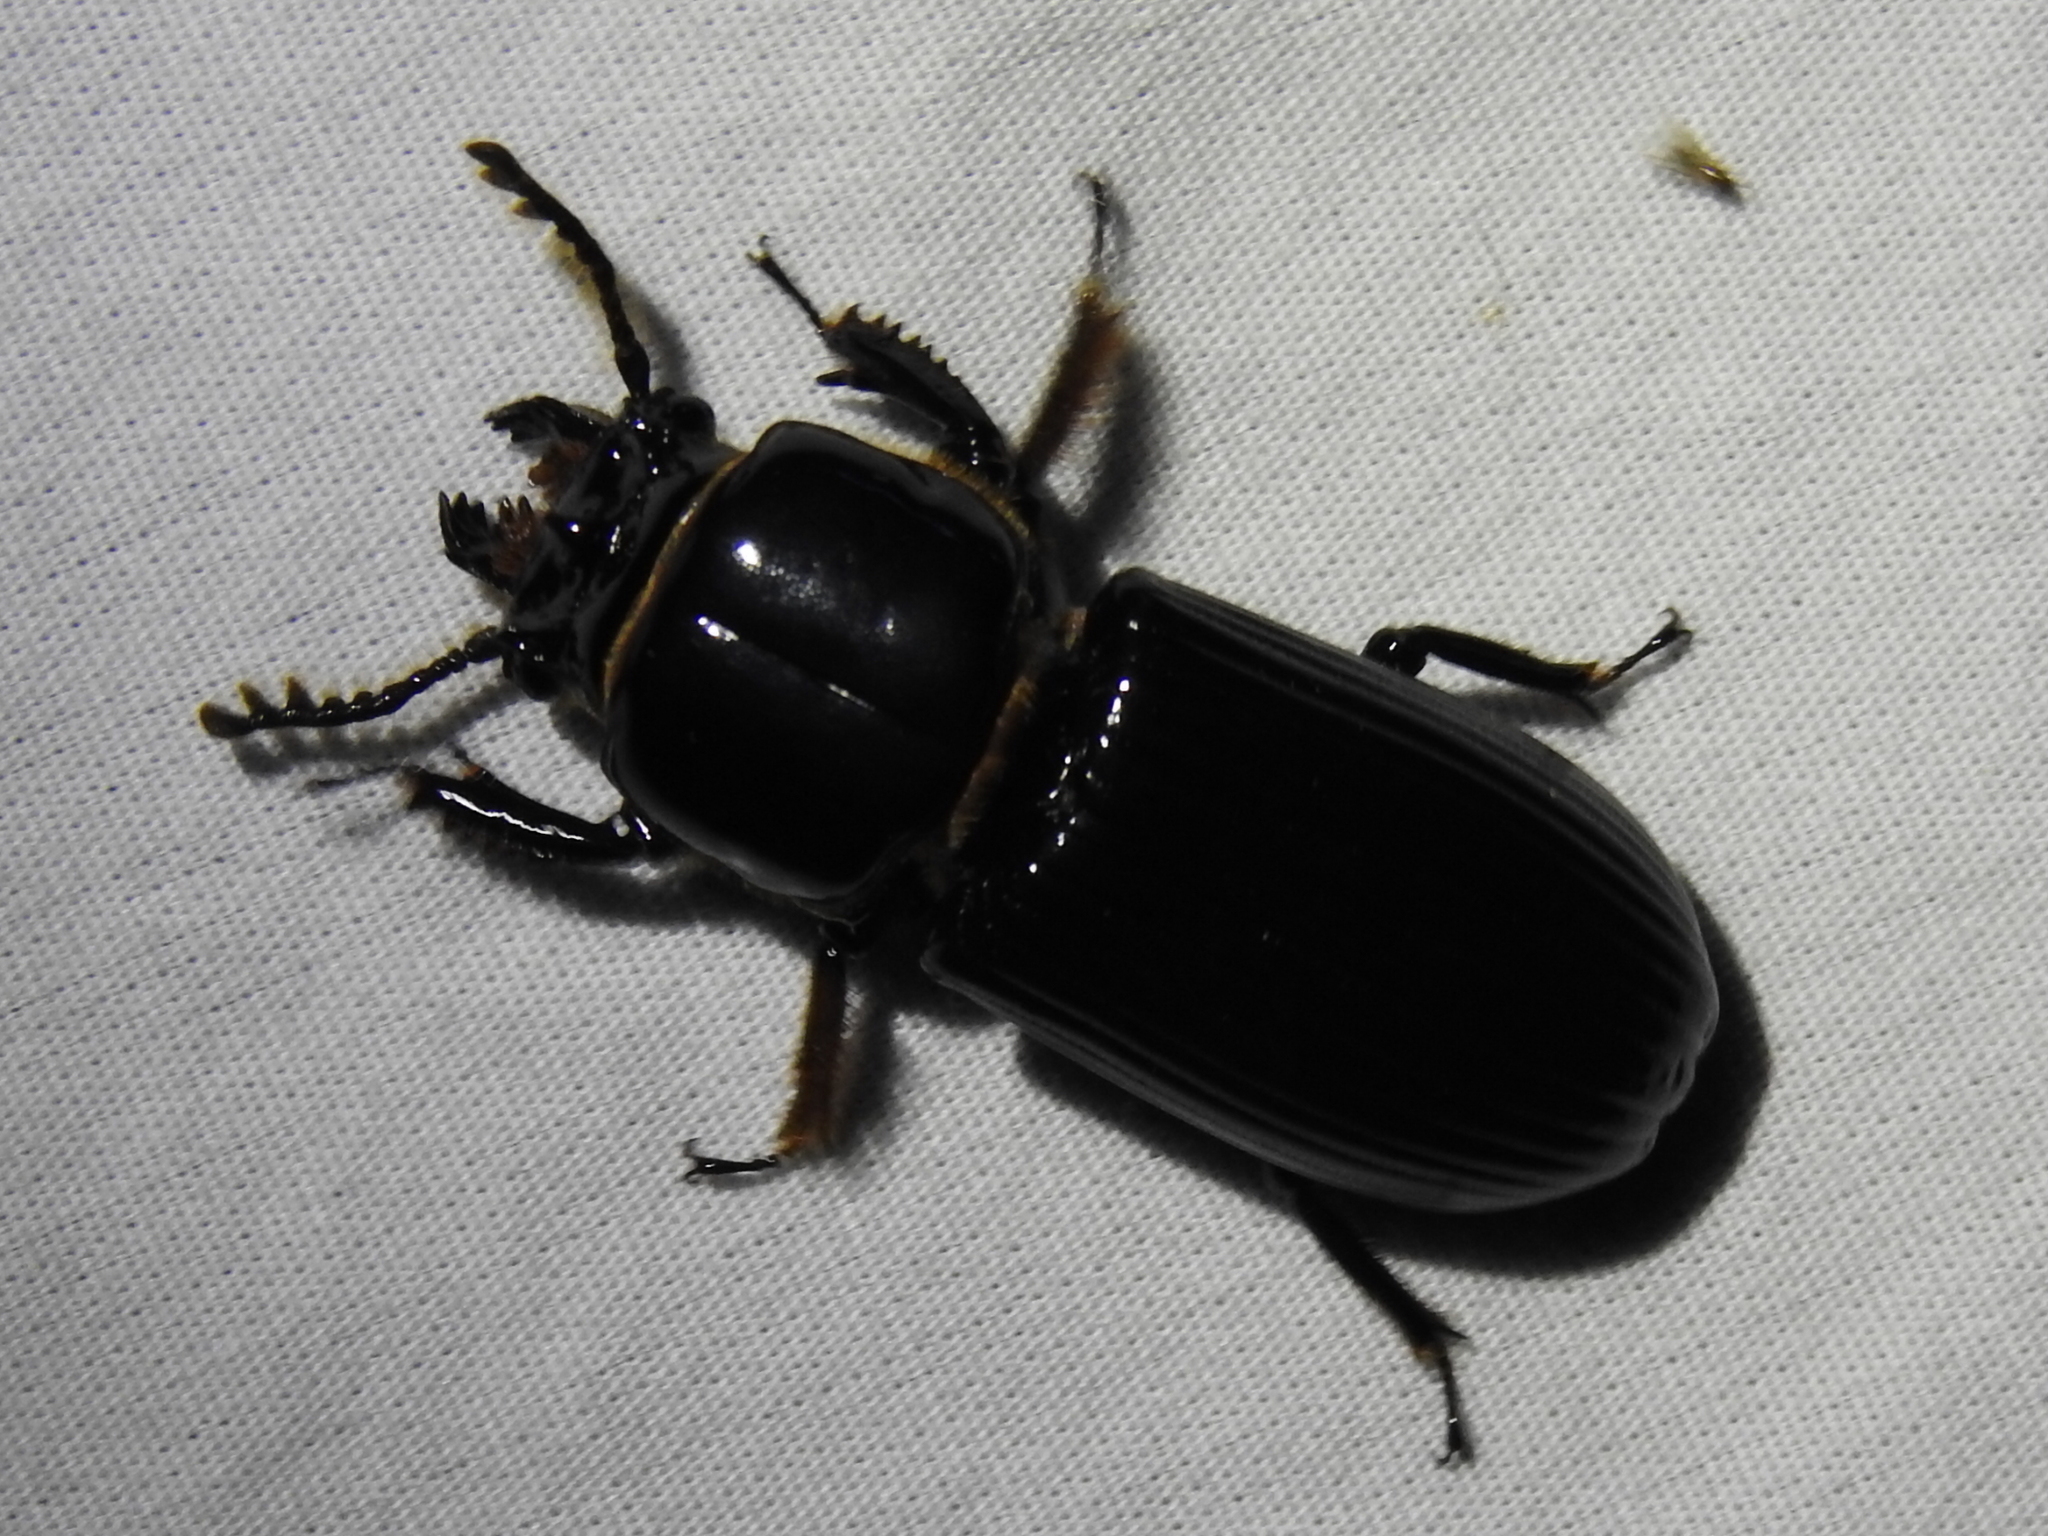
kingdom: Animalia
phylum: Arthropoda
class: Insecta
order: Coleoptera
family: Passalidae
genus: Odontotaenius
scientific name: Odontotaenius disjunctus
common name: Patent leather beetle
